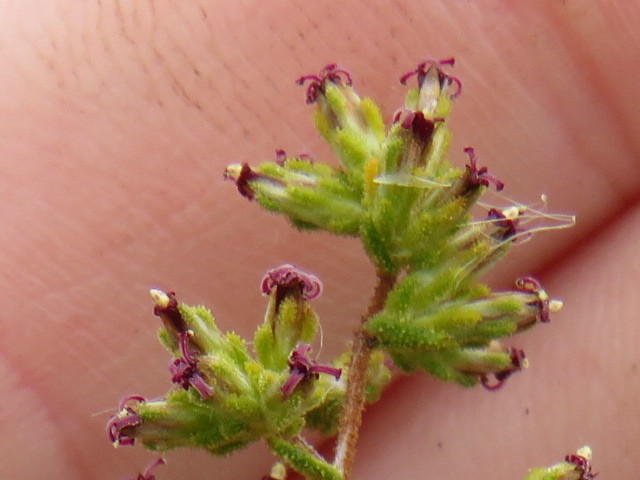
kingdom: Plantae
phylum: Tracheophyta
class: Magnoliopsida
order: Asterales
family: Asteraceae
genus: Myrovernix
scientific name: Myrovernix scaber
